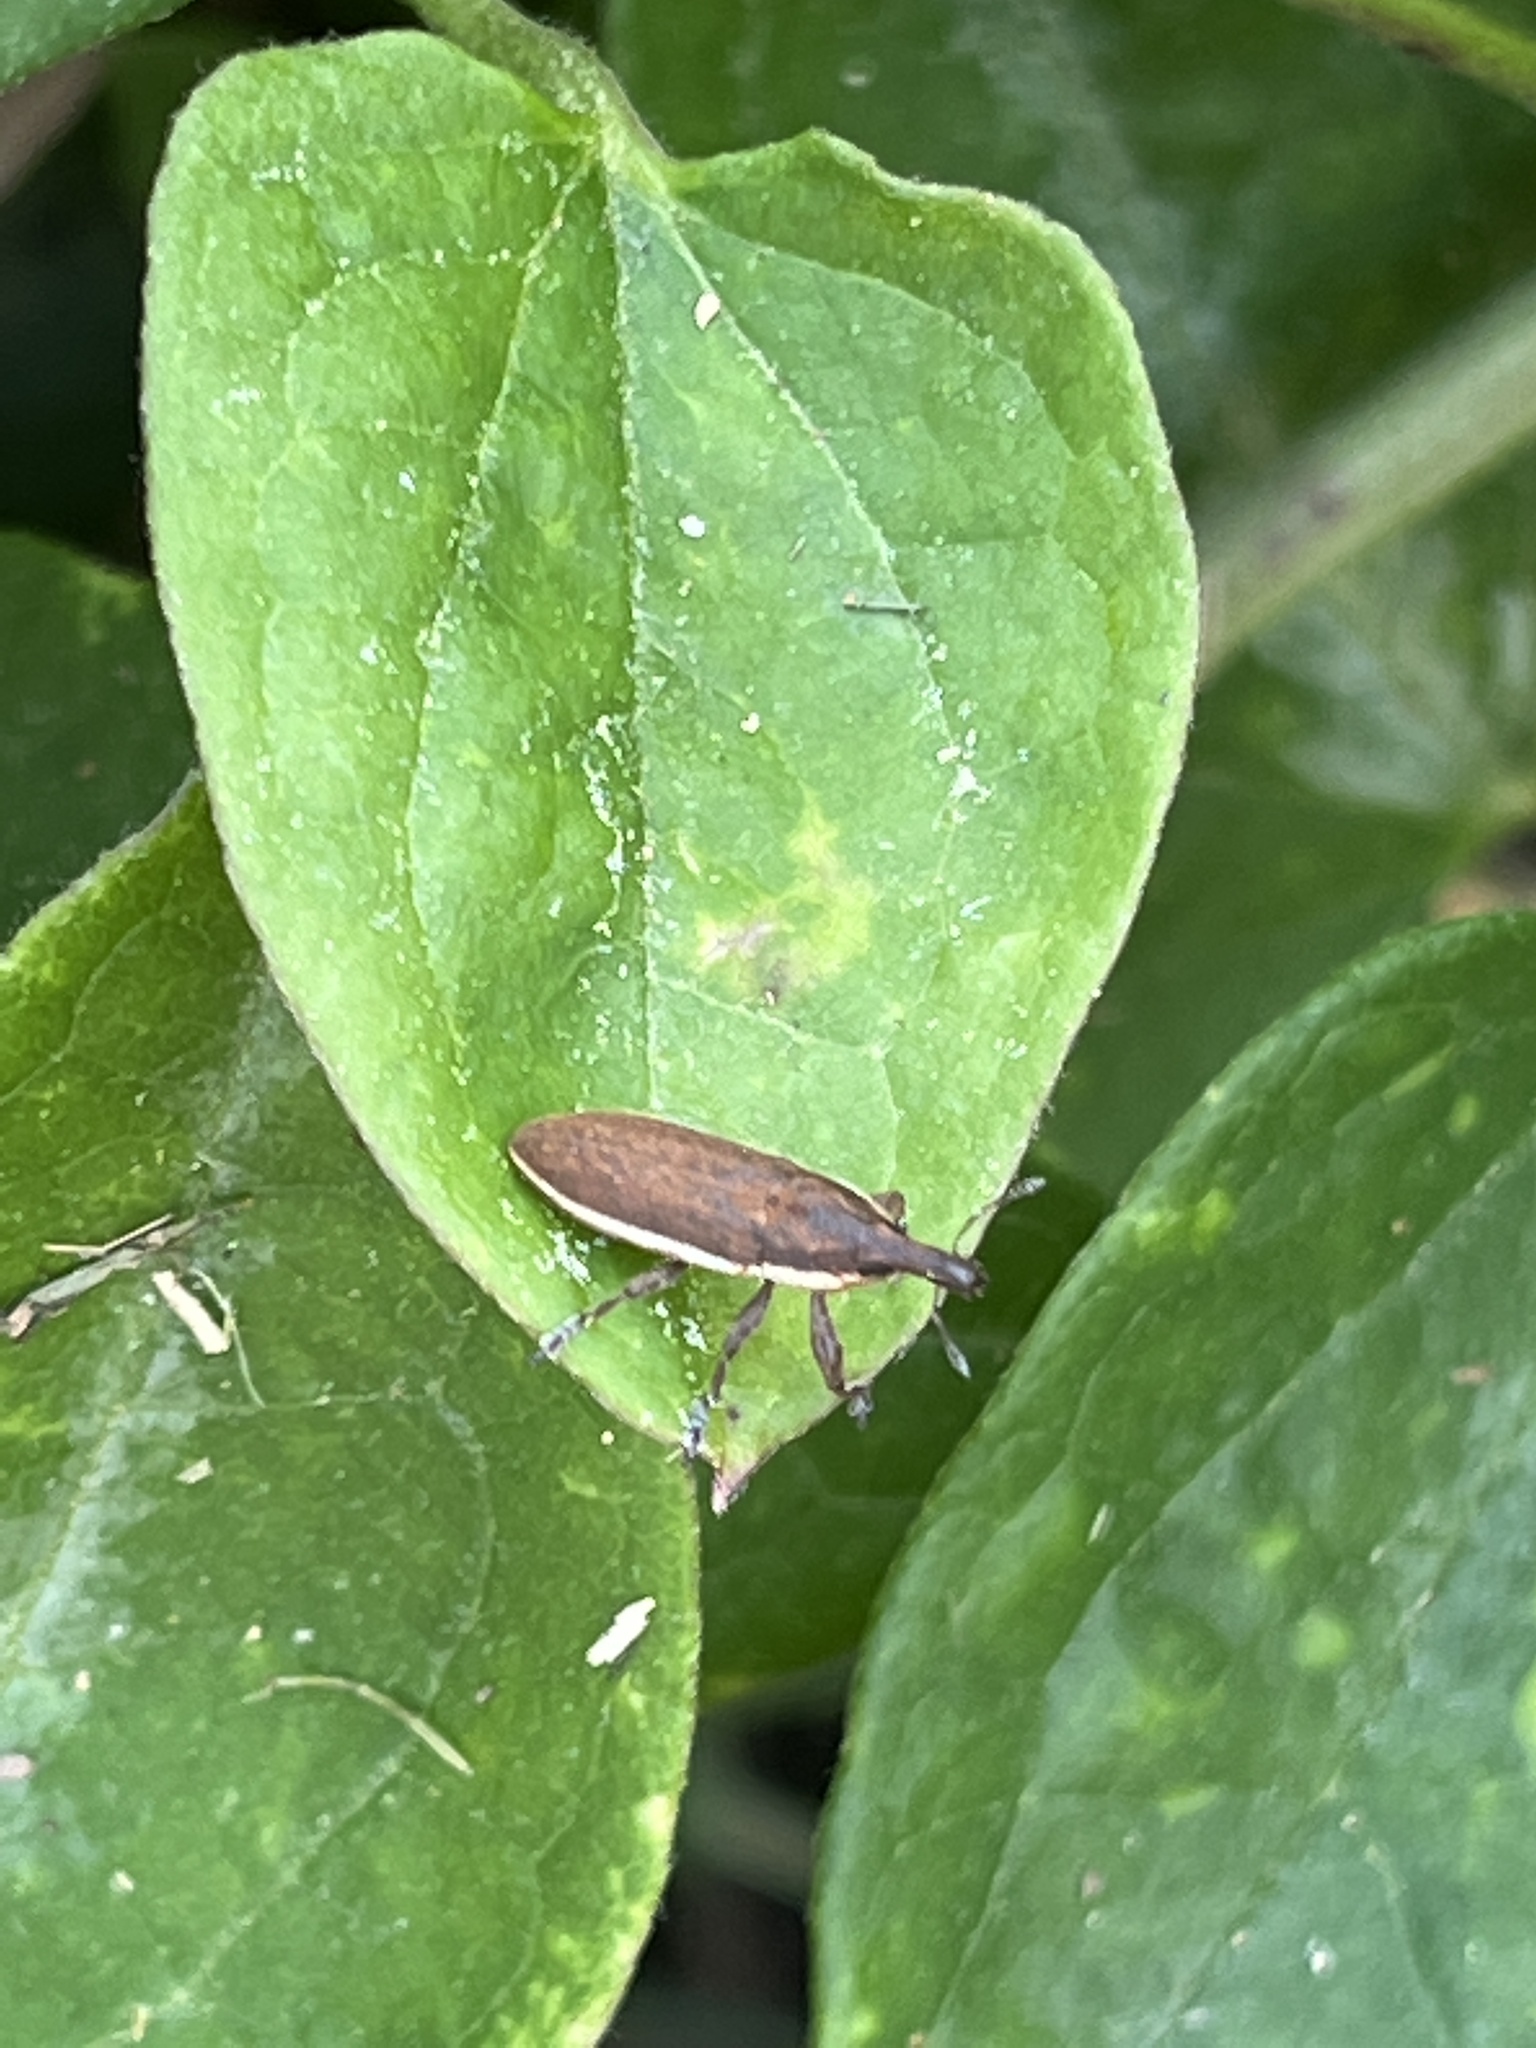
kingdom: Animalia
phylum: Arthropoda
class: Insecta
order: Coleoptera
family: Curculionidae
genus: Lixus
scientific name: Lixus amplexus
